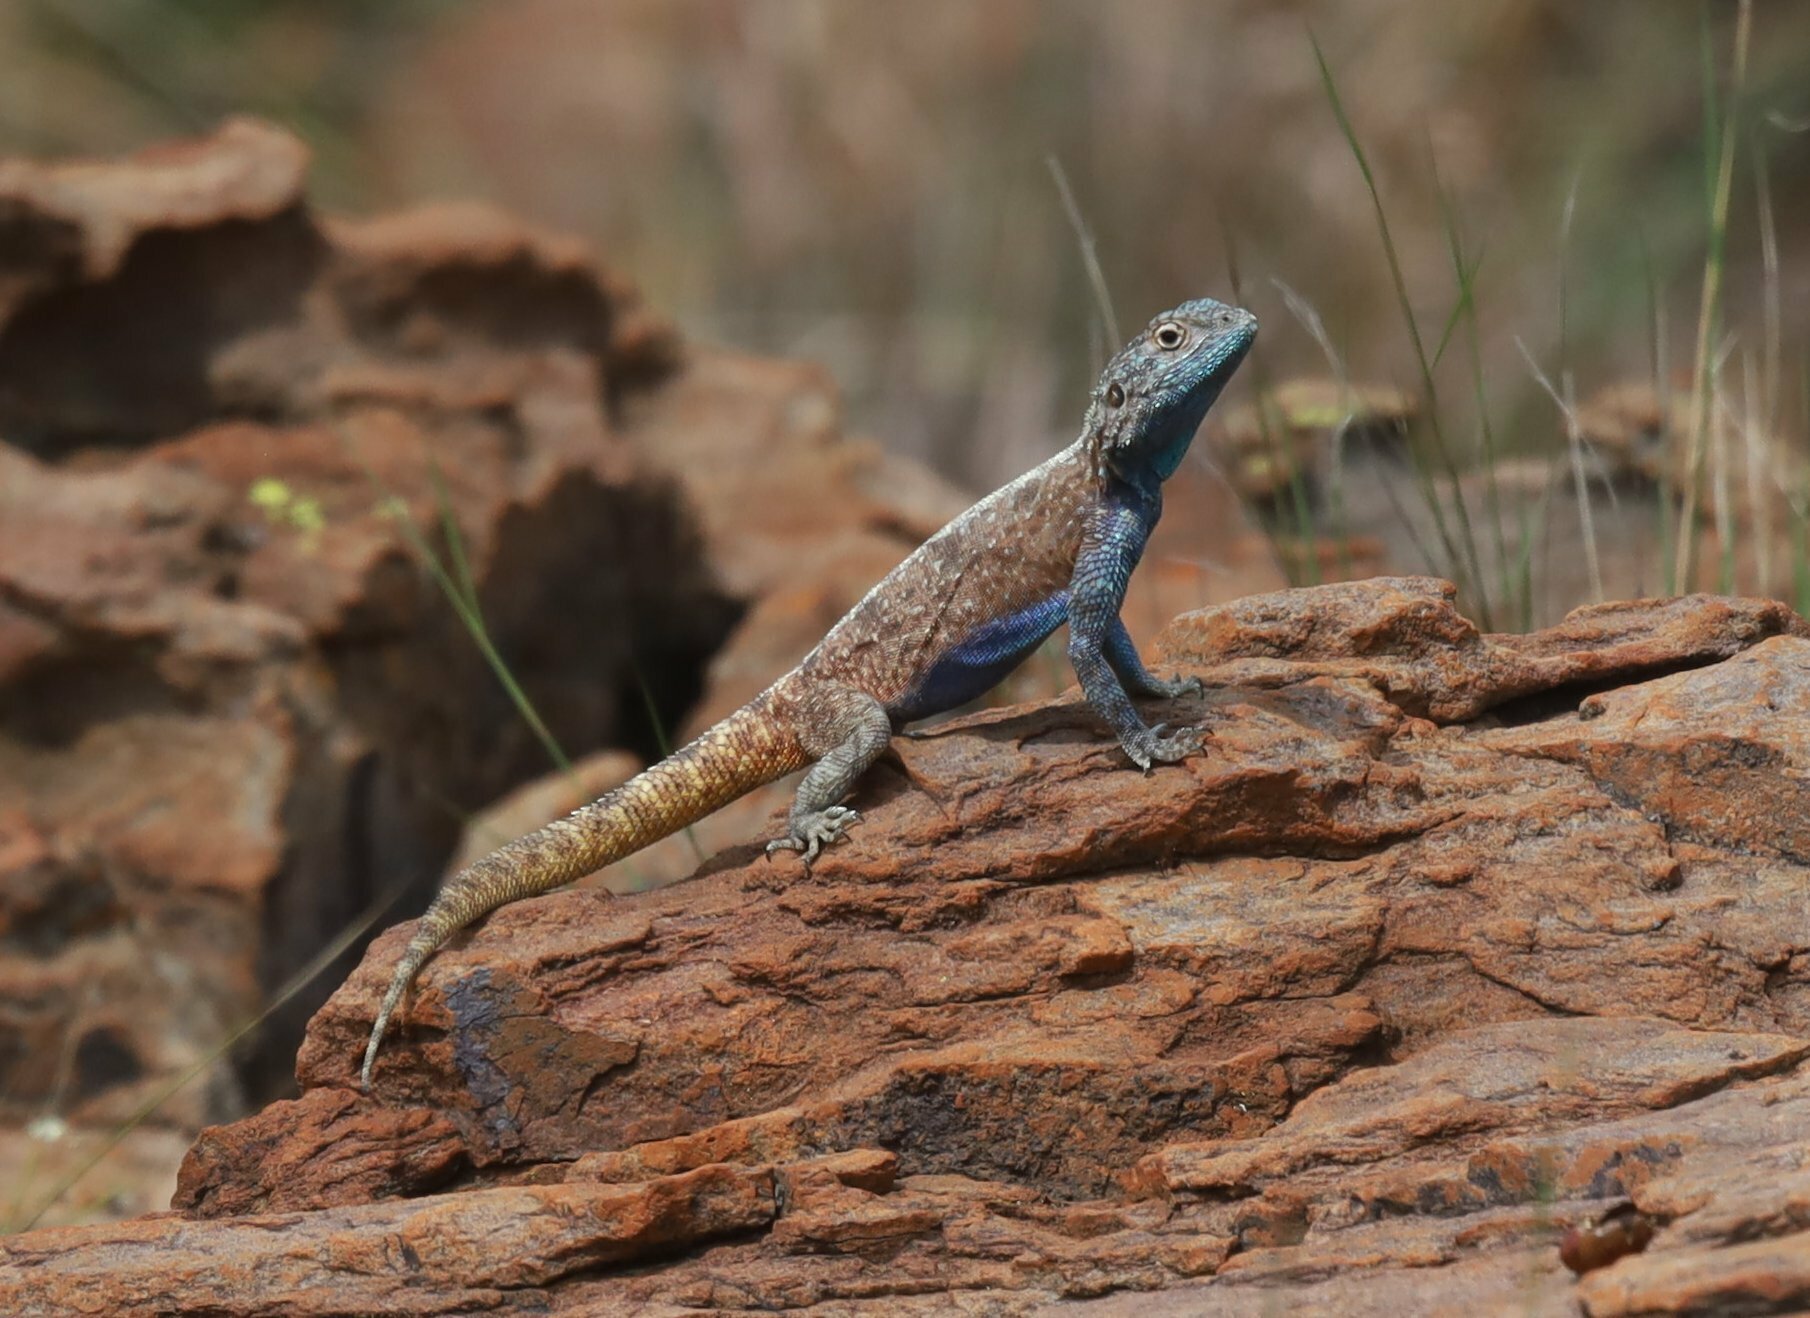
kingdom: Animalia
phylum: Chordata
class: Squamata
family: Agamidae
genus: Agama
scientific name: Agama atra
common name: Southern african rock agama
